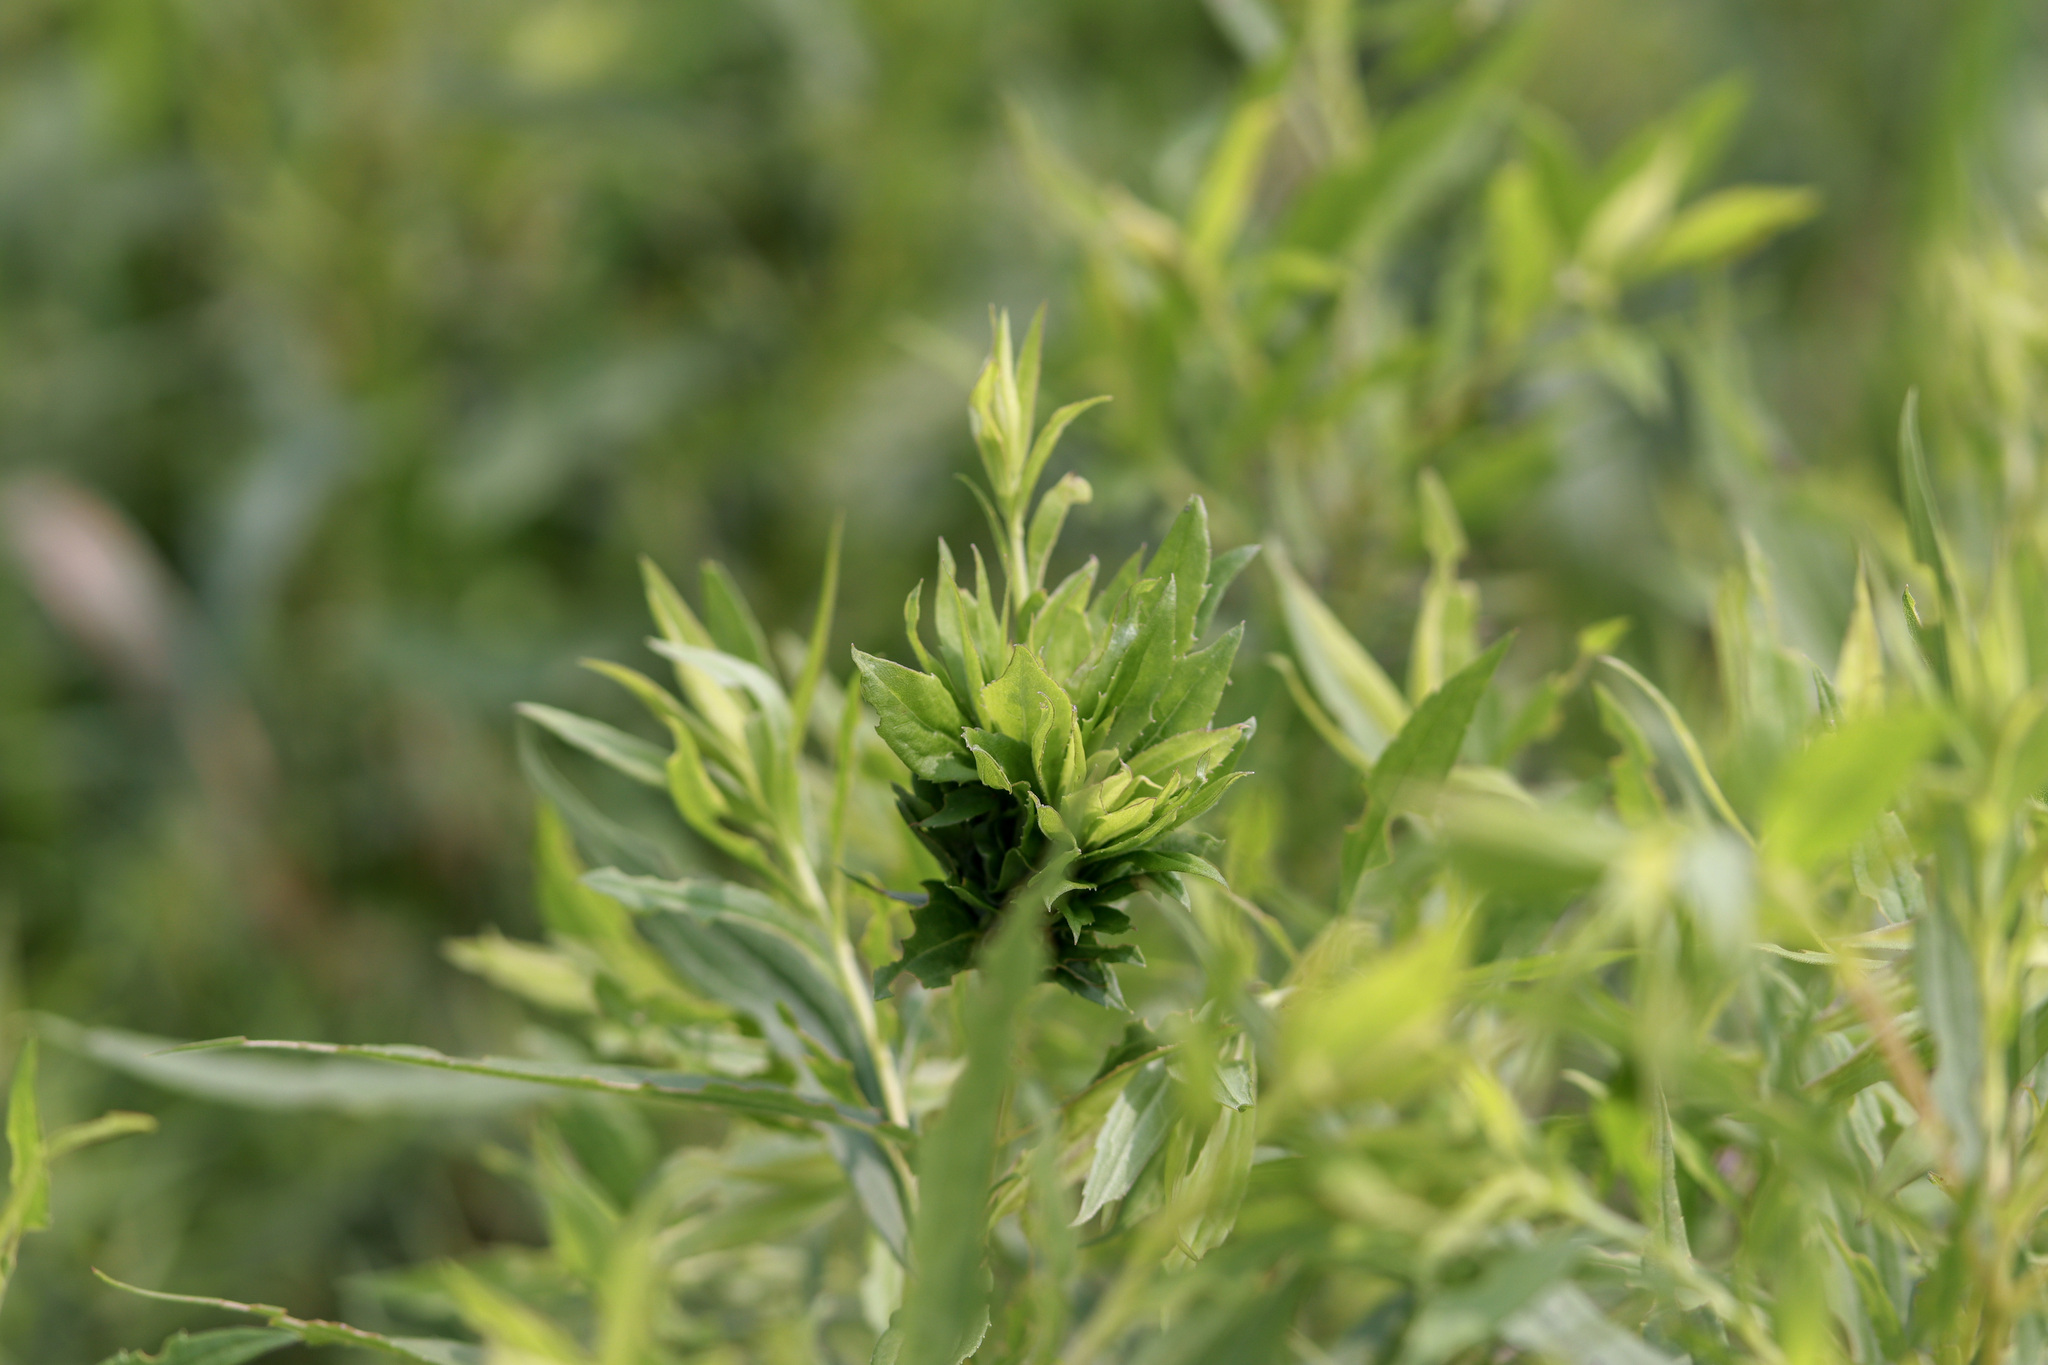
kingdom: Animalia
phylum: Arthropoda
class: Insecta
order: Diptera
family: Cecidomyiidae
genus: Rhopalomyia
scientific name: Rhopalomyia solidaginis
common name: Goldenrod bunch gall midge
